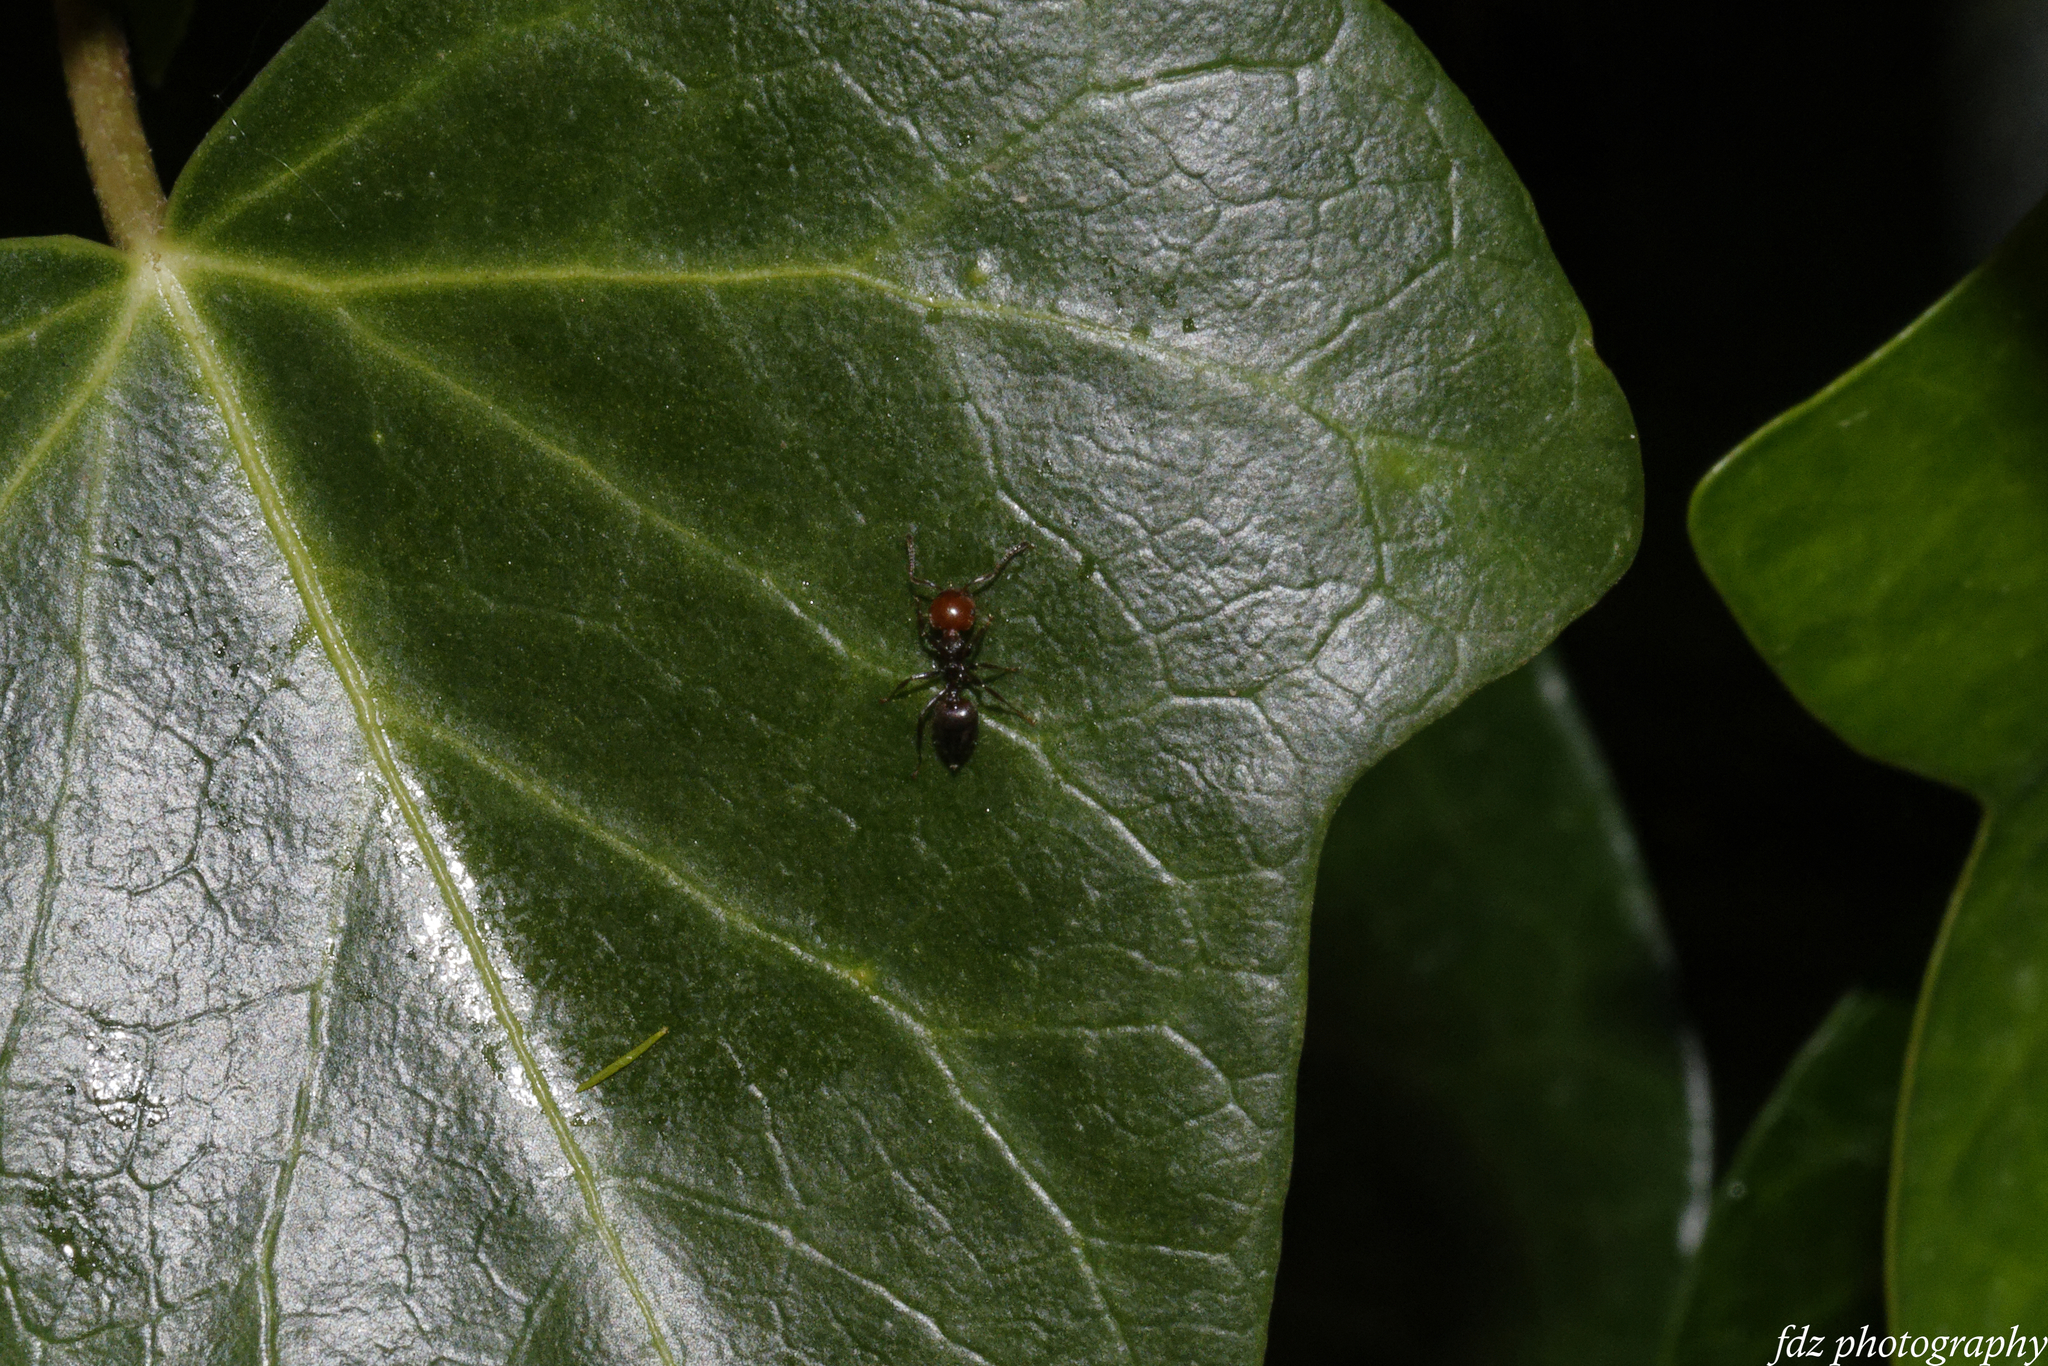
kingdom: Animalia
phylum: Arthropoda
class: Insecta
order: Hymenoptera
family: Formicidae
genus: Crematogaster
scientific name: Crematogaster scutellaris
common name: Fourmi du liège
